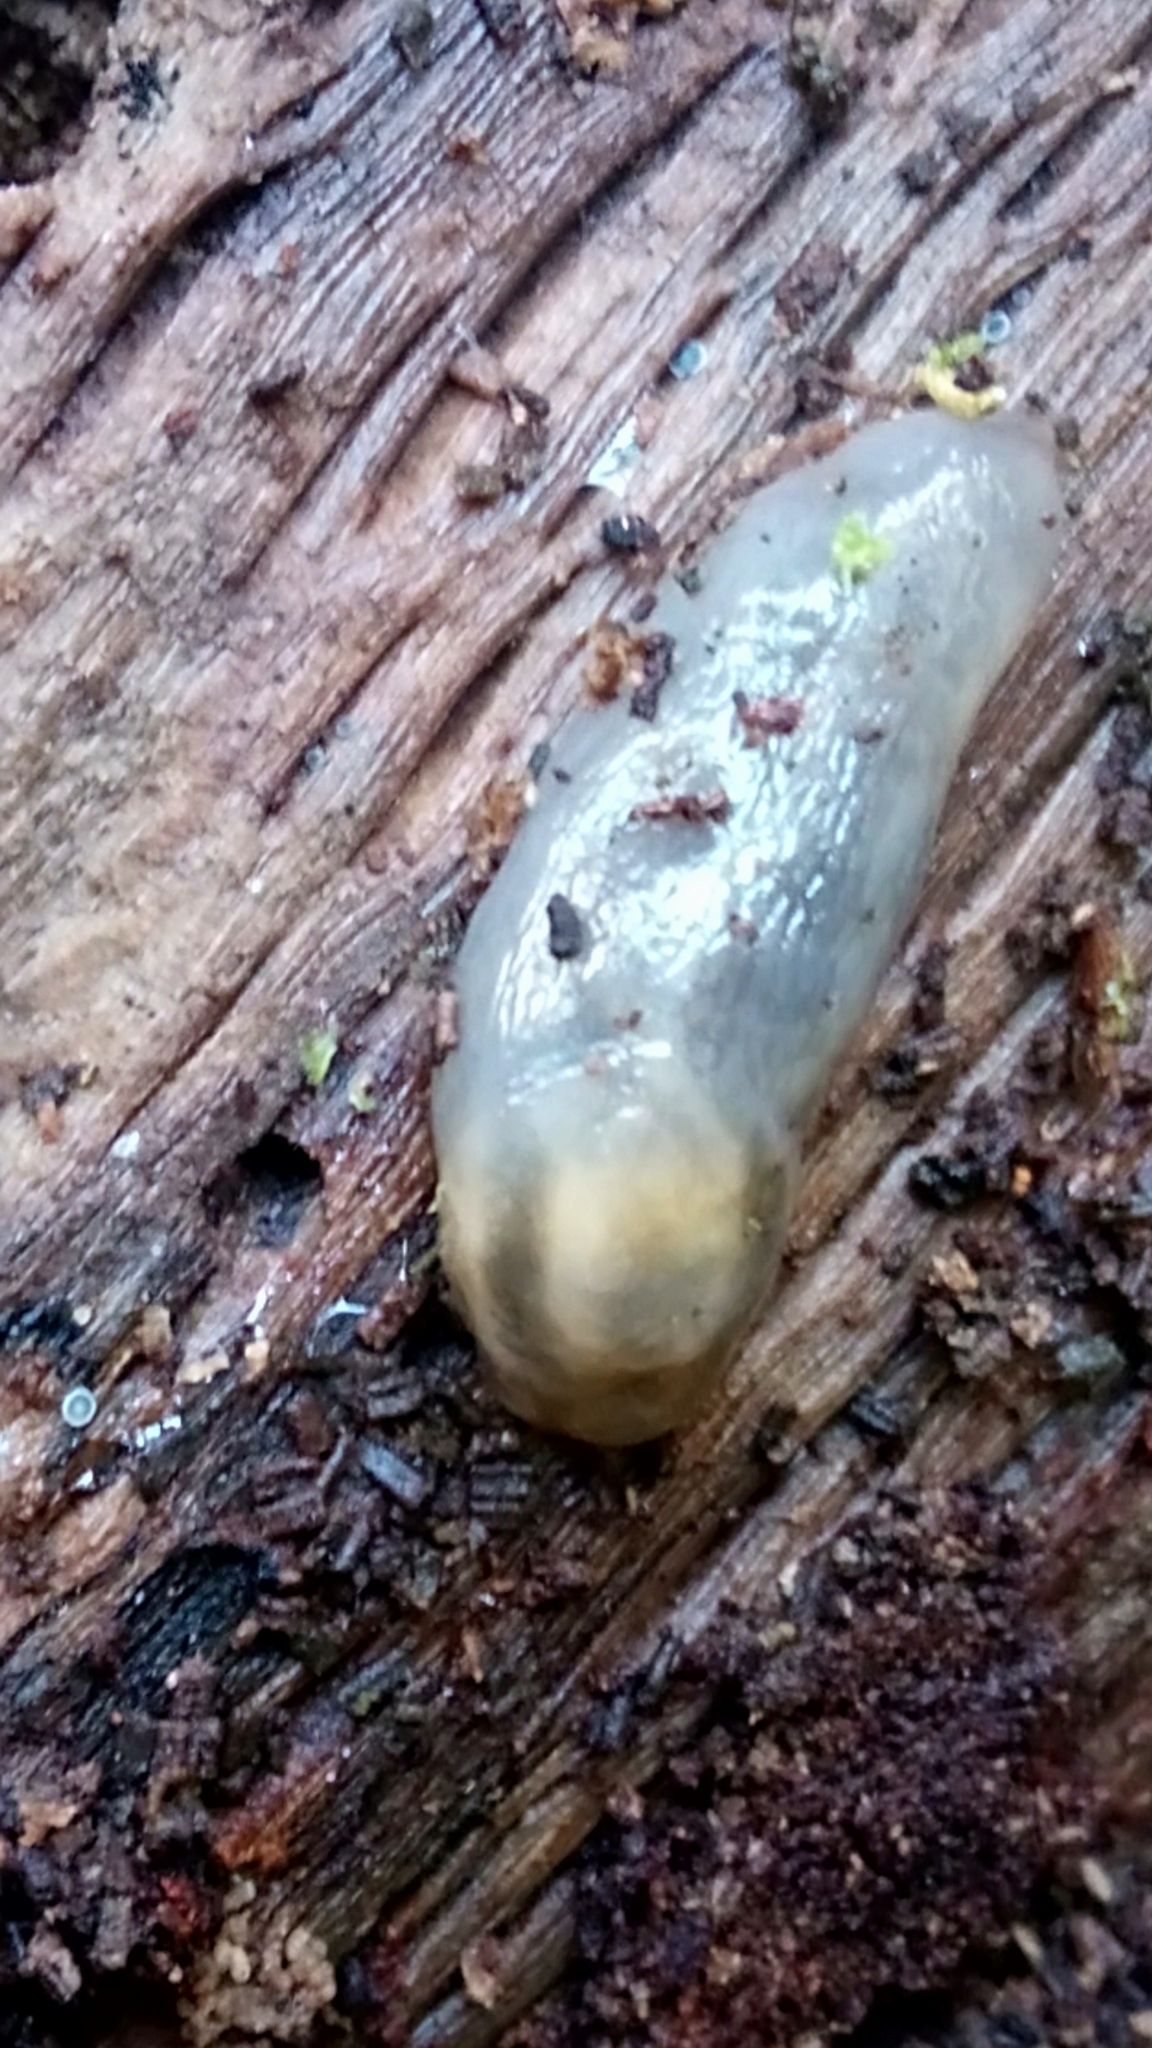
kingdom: Animalia
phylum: Mollusca
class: Gastropoda
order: Stylommatophora
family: Limacidae
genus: Lehmannia
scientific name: Lehmannia marginata
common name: Tree slug
